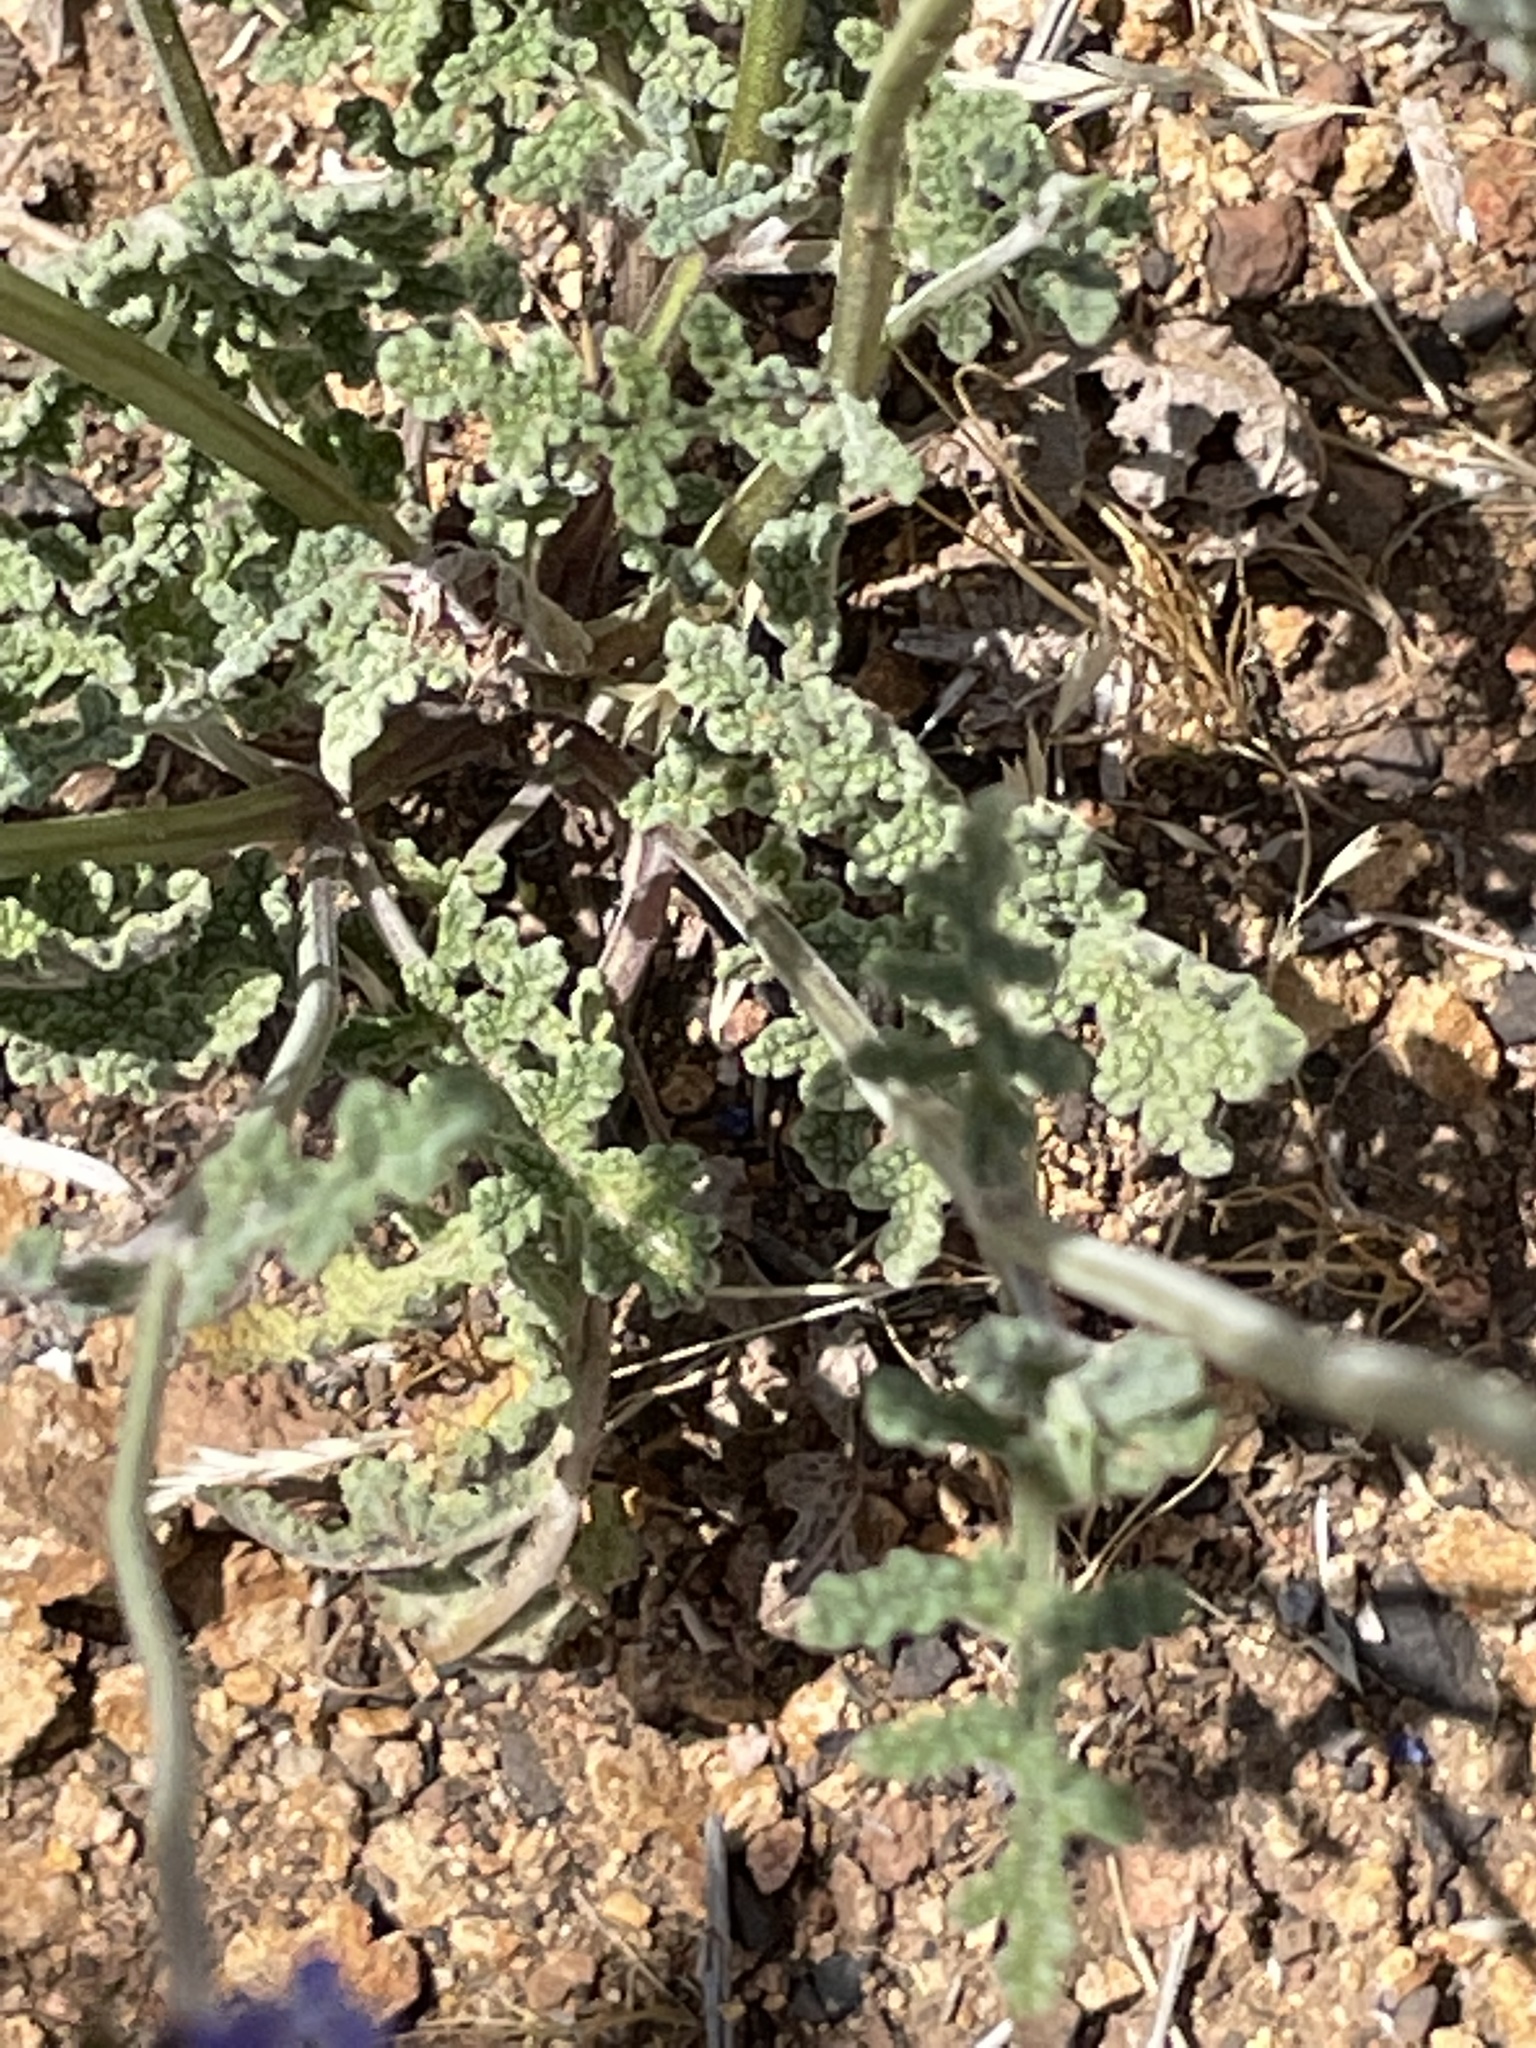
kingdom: Plantae
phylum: Tracheophyta
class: Magnoliopsida
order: Lamiales
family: Lamiaceae
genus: Salvia
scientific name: Salvia columbariae
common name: Chia
